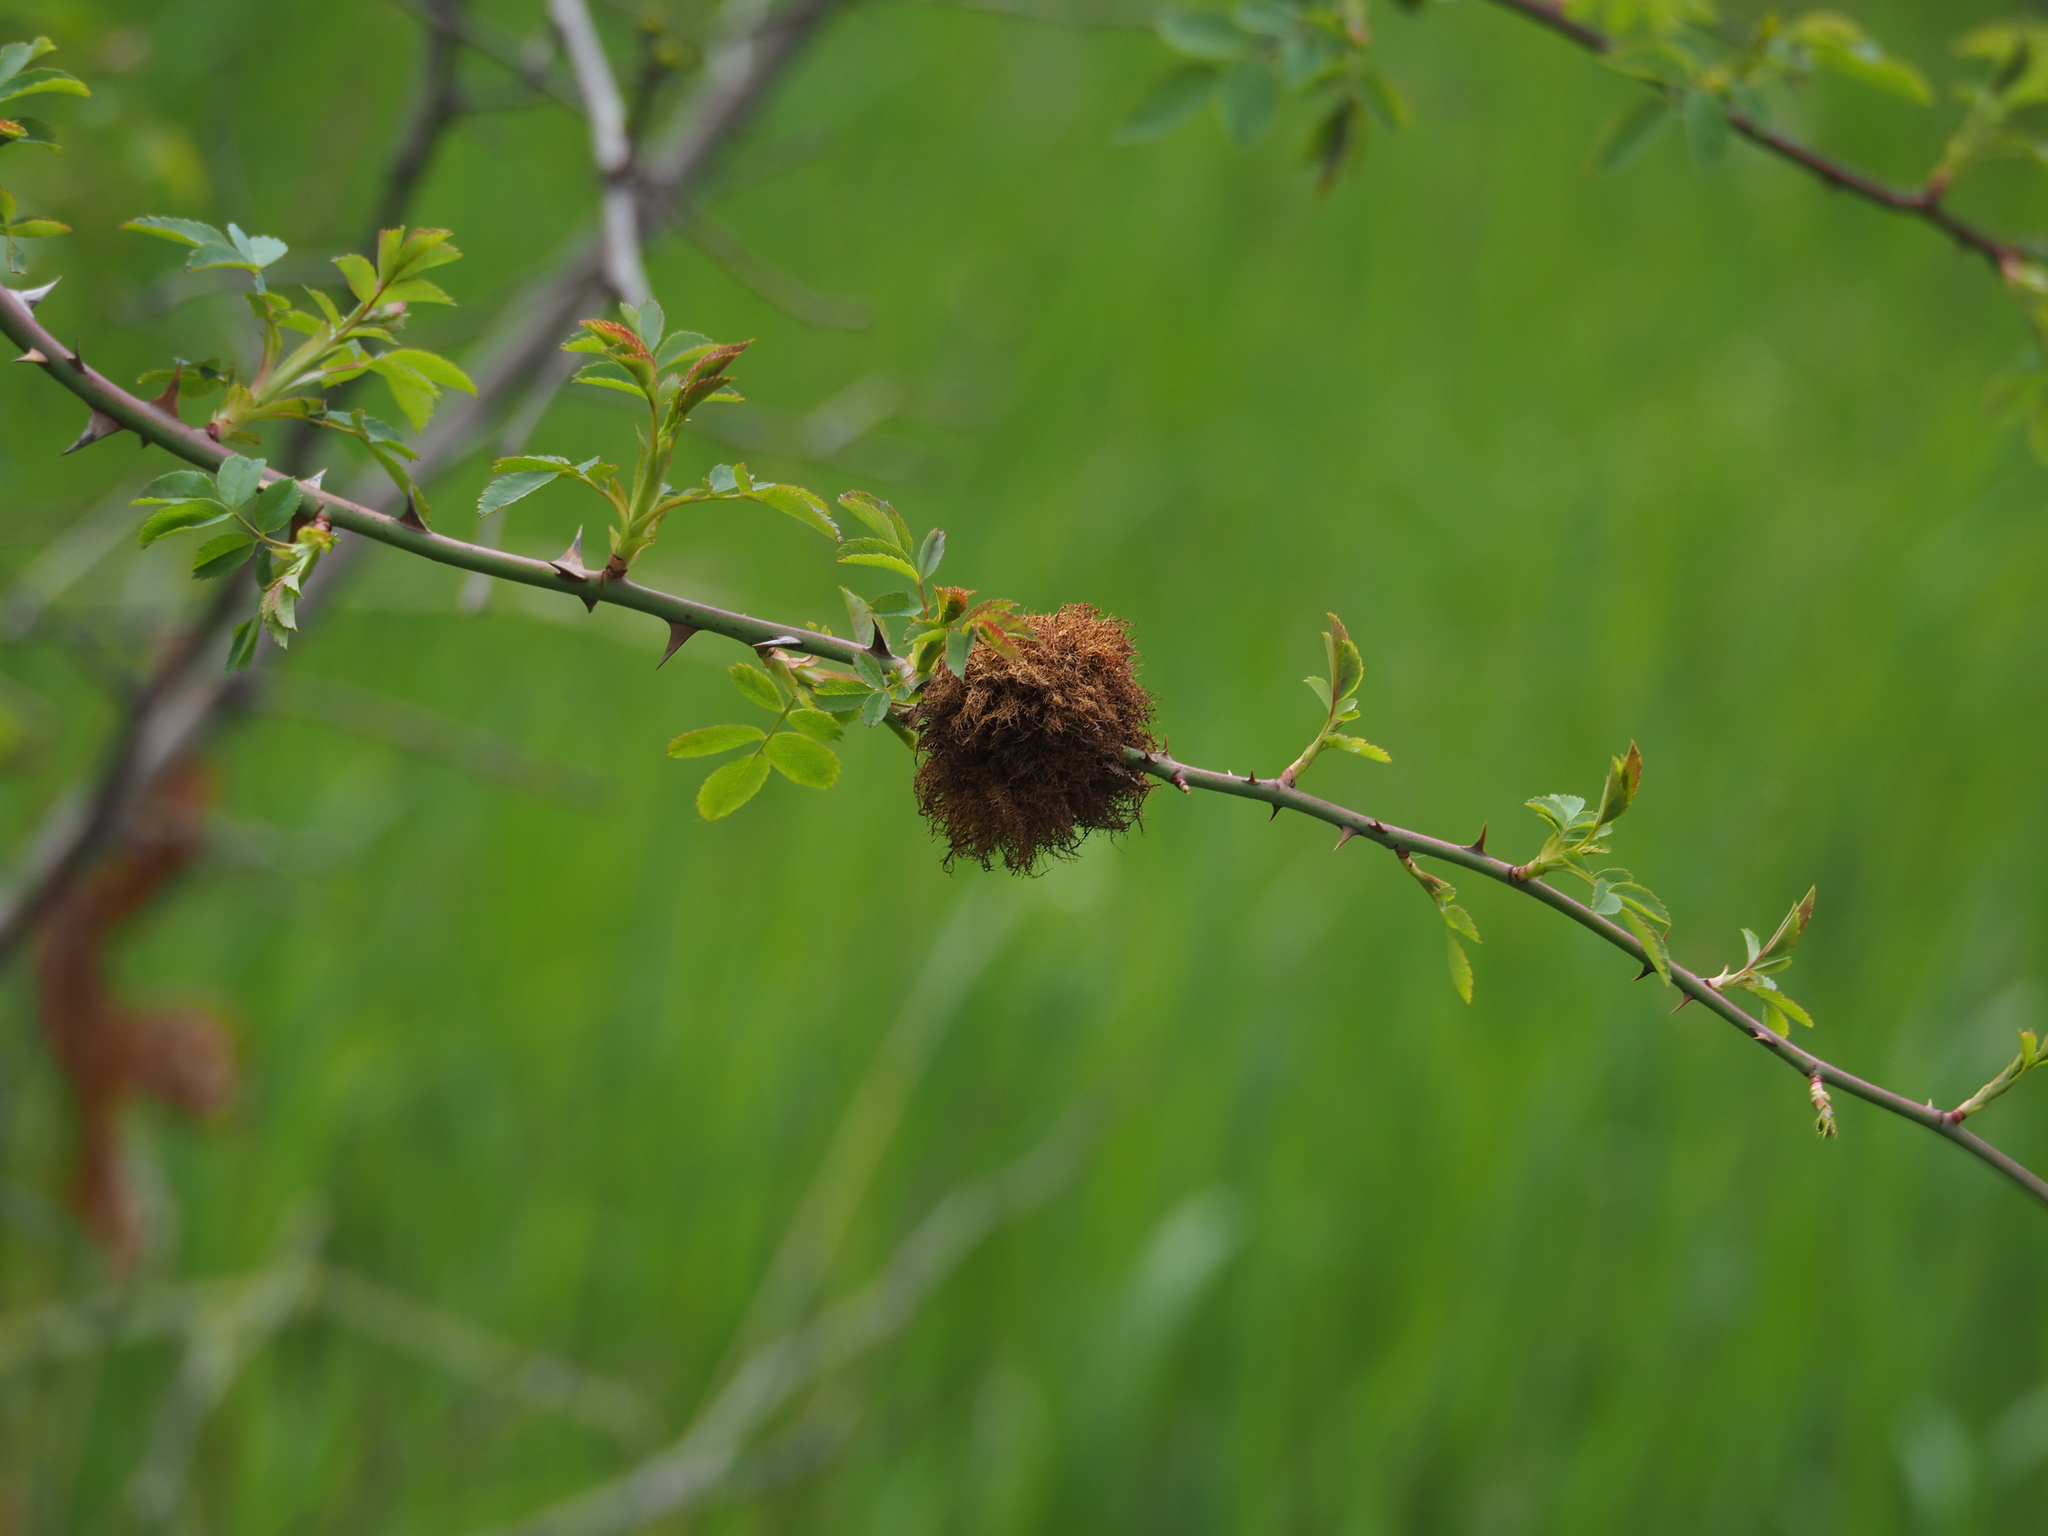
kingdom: Animalia
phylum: Arthropoda
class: Insecta
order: Hymenoptera
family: Cynipidae
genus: Diplolepis
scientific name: Diplolepis rosae
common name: Bedeguar gall
